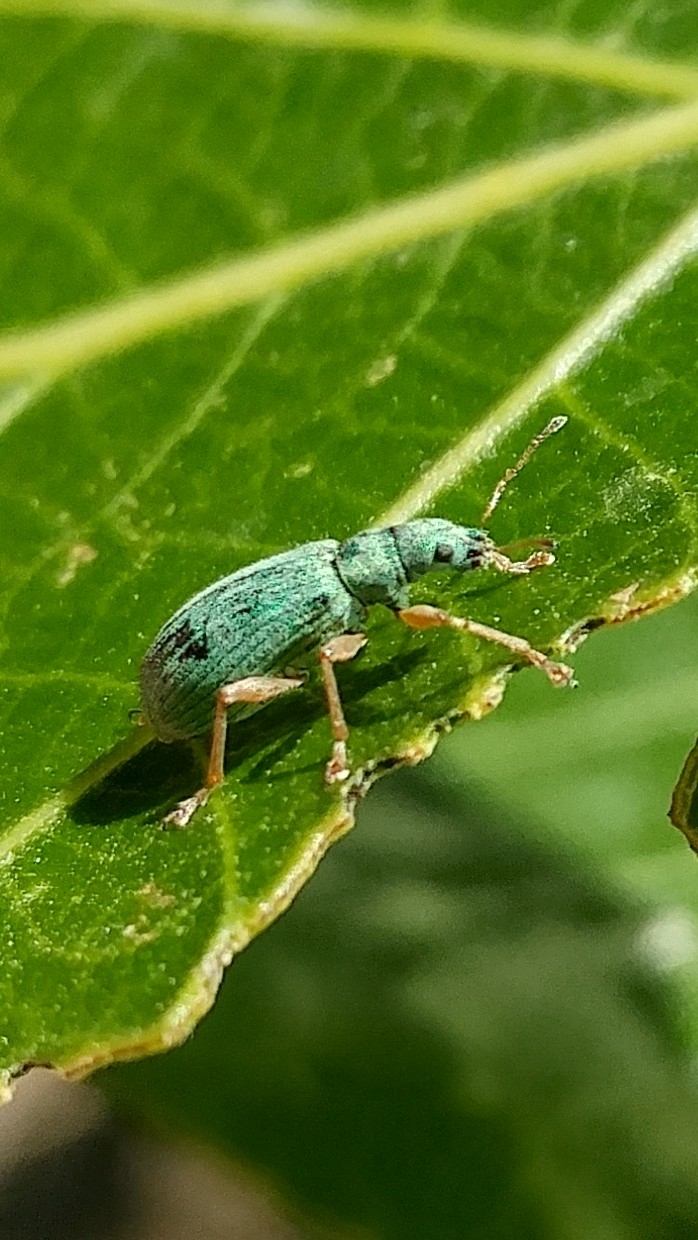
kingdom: Animalia
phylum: Arthropoda
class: Insecta
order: Coleoptera
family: Curculionidae
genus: Polydrusus
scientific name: Polydrusus impressifrons
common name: Weevil
